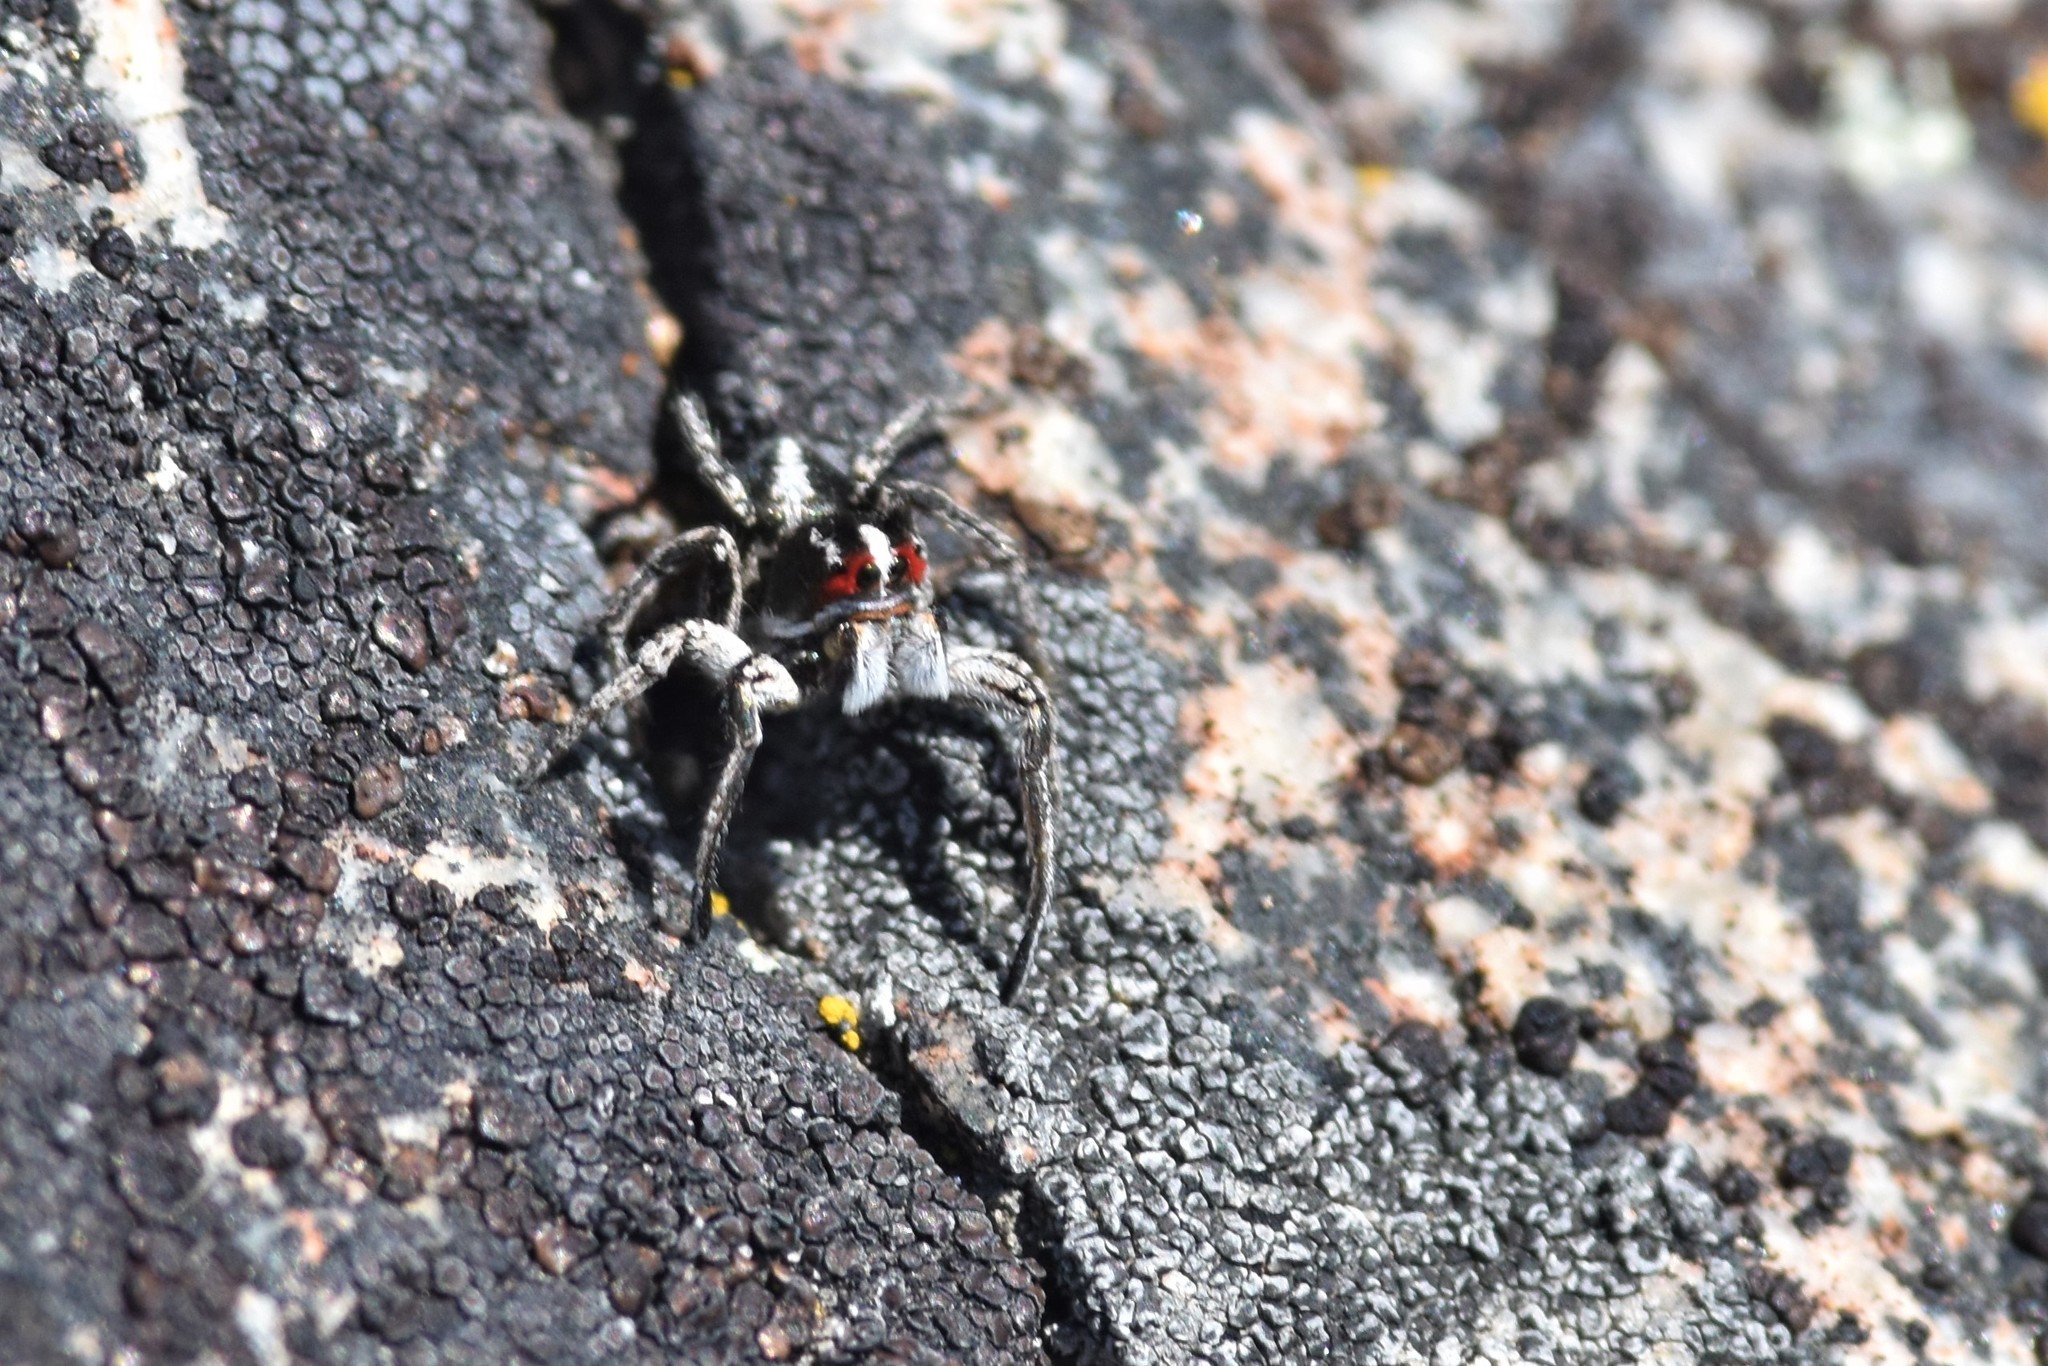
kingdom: Animalia
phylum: Arthropoda
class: Arachnida
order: Araneae
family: Salticidae
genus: Habronattus
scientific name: Habronattus sansoni
